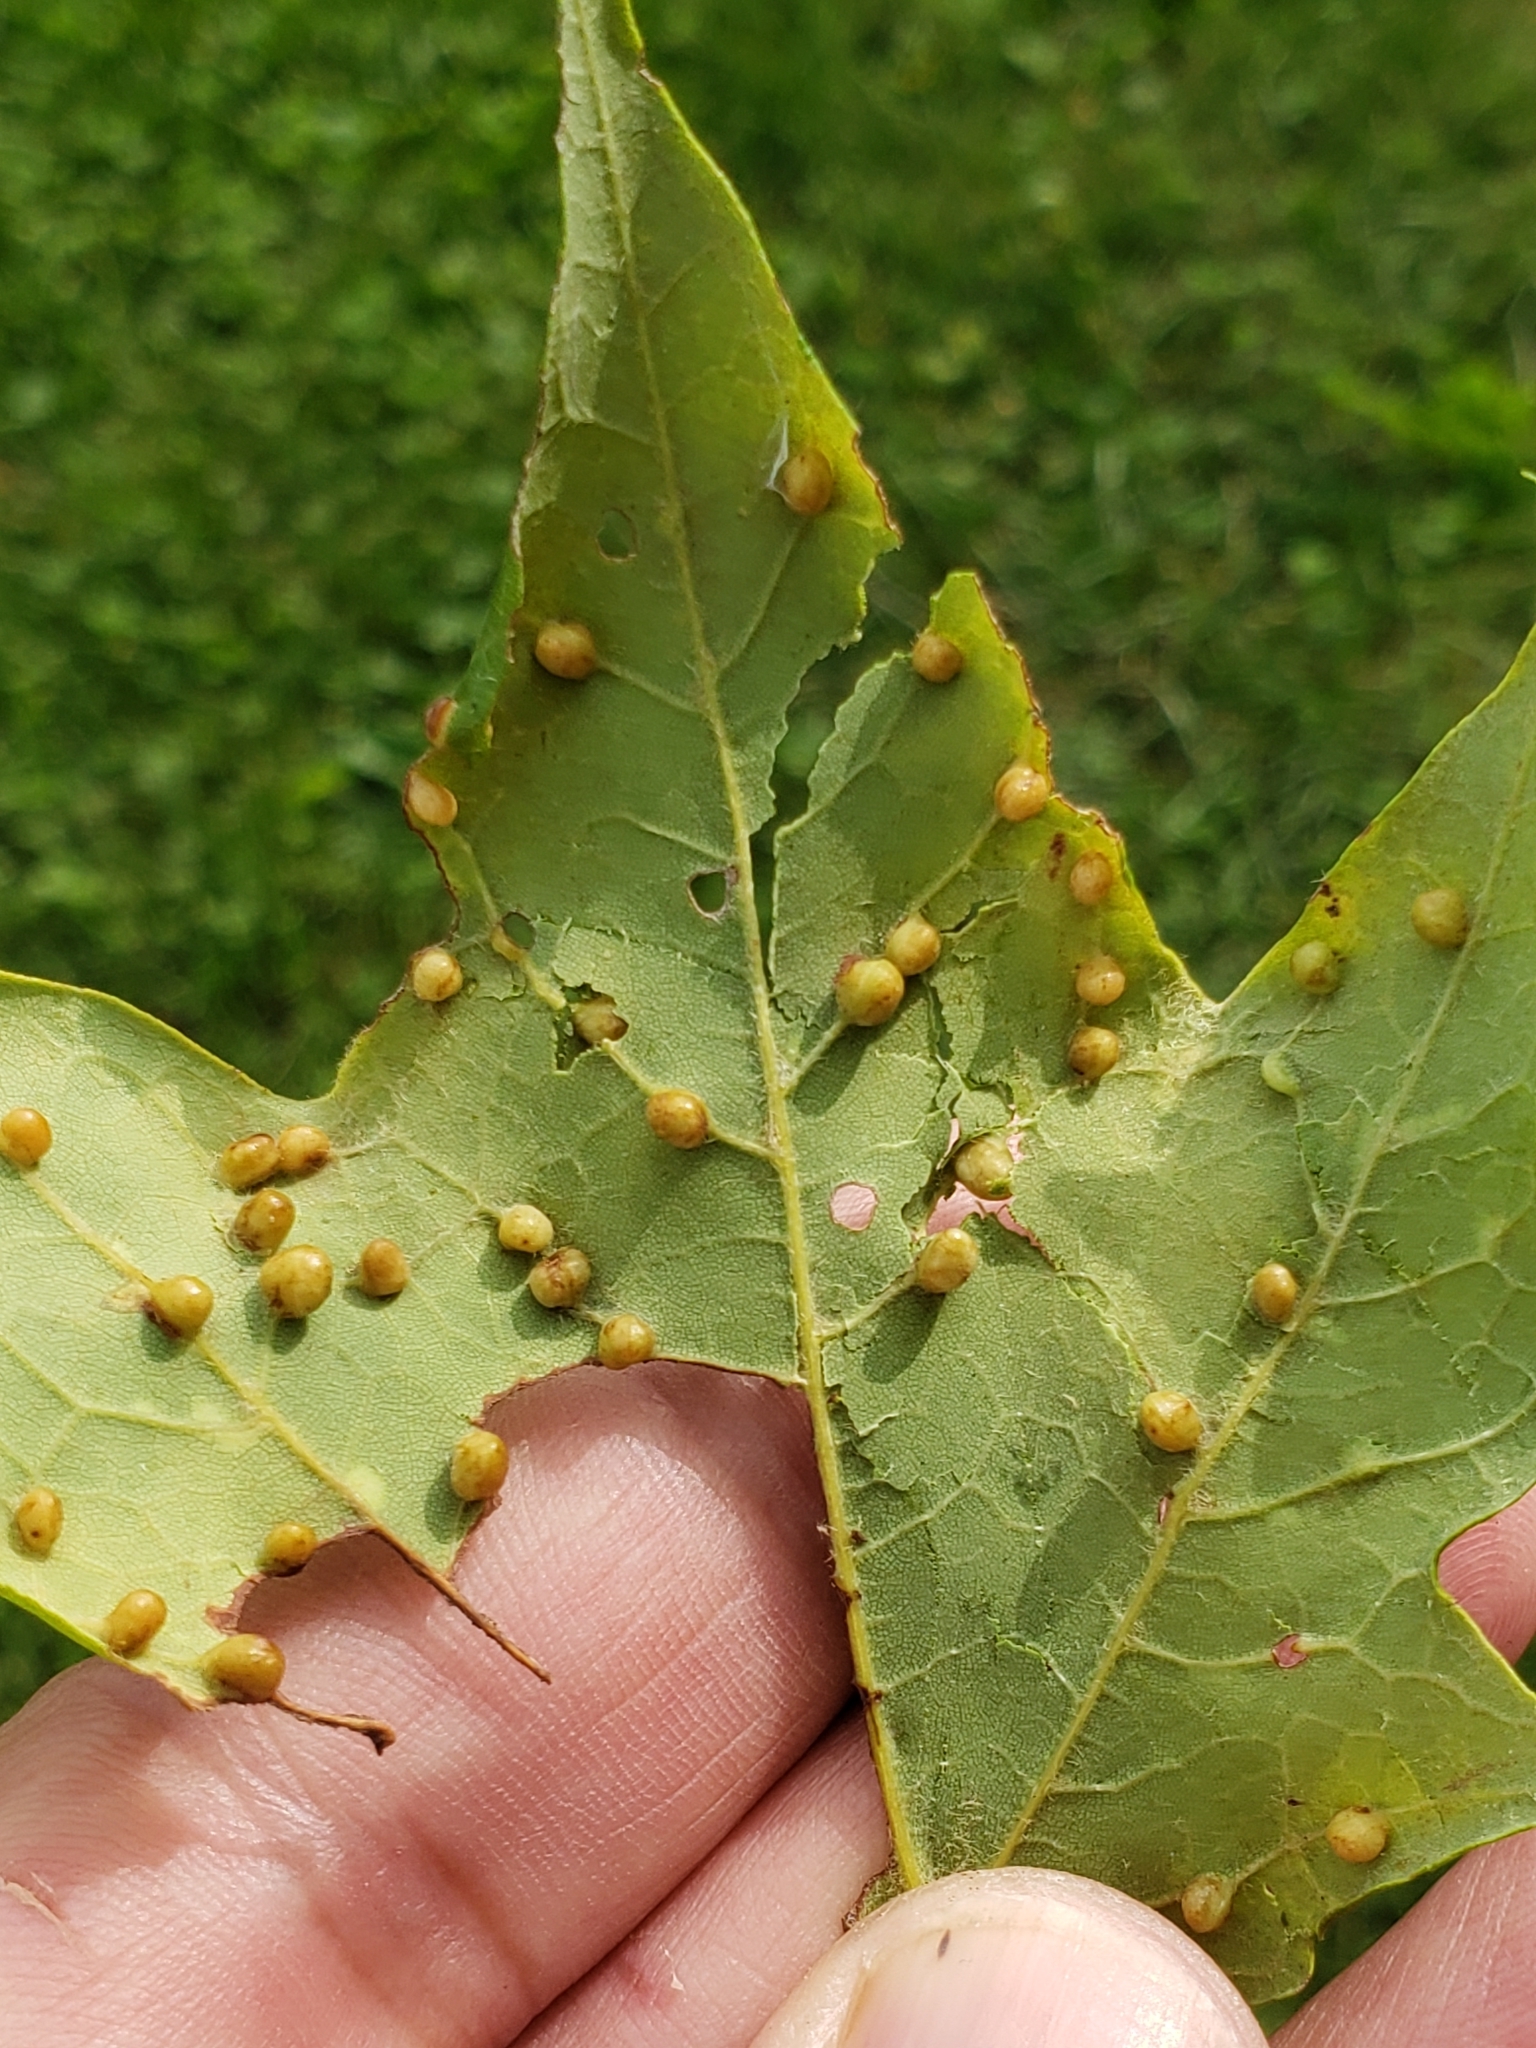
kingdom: Animalia
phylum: Arthropoda
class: Insecta
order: Diptera
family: Cecidomyiidae
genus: Dasineura
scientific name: Dasineura communis
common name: Gouty vein midge
